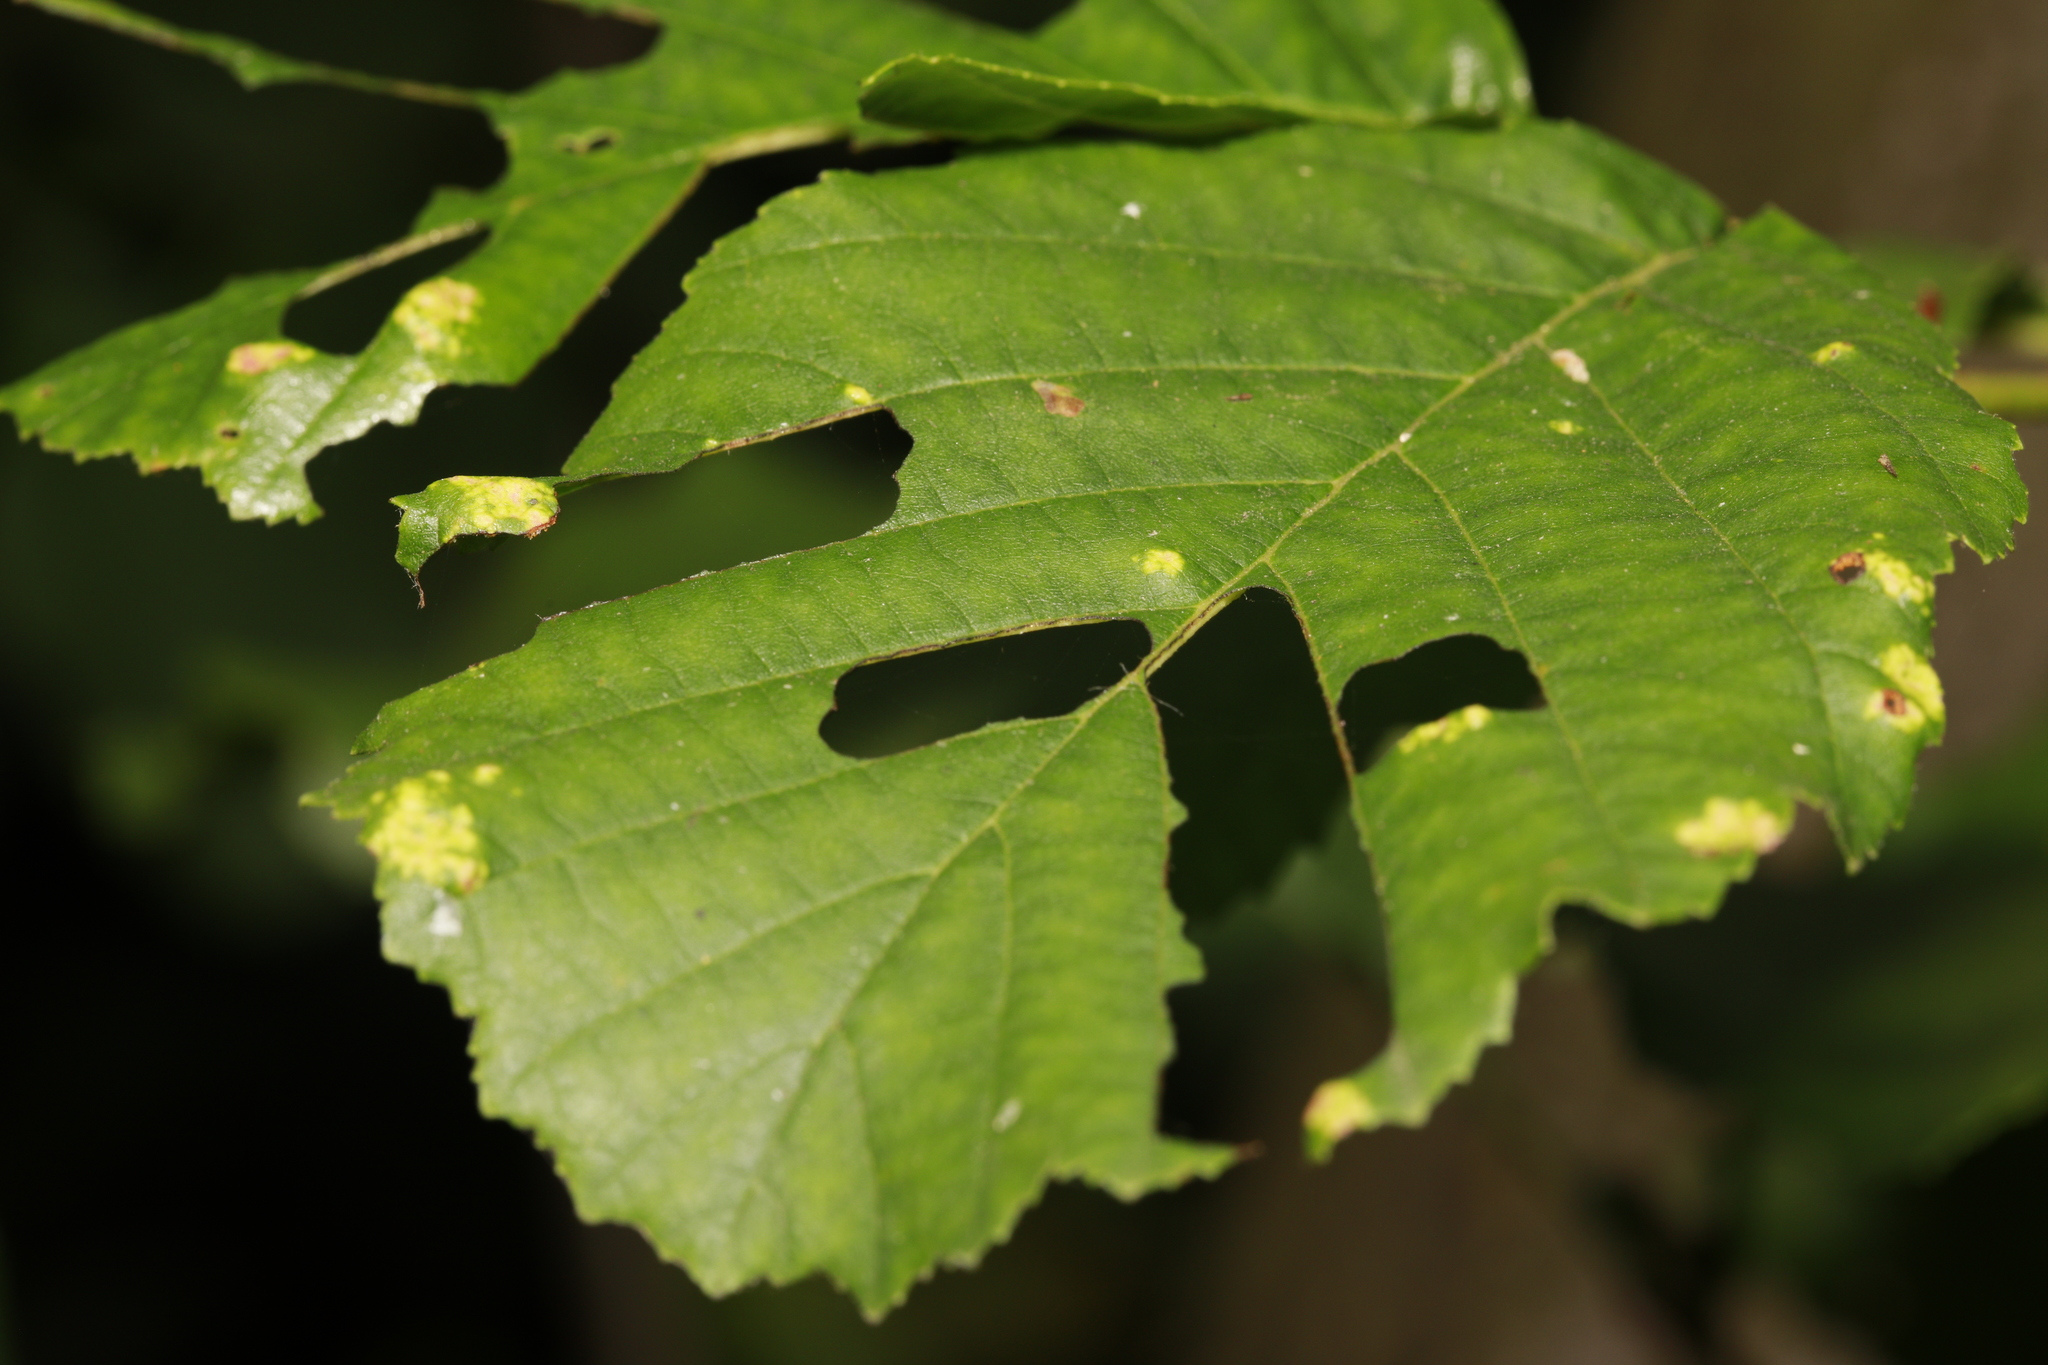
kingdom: Animalia
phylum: Arthropoda
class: Arachnida
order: Trombidiformes
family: Eriophyidae
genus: Acalitus
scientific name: Acalitus brevitarsus
